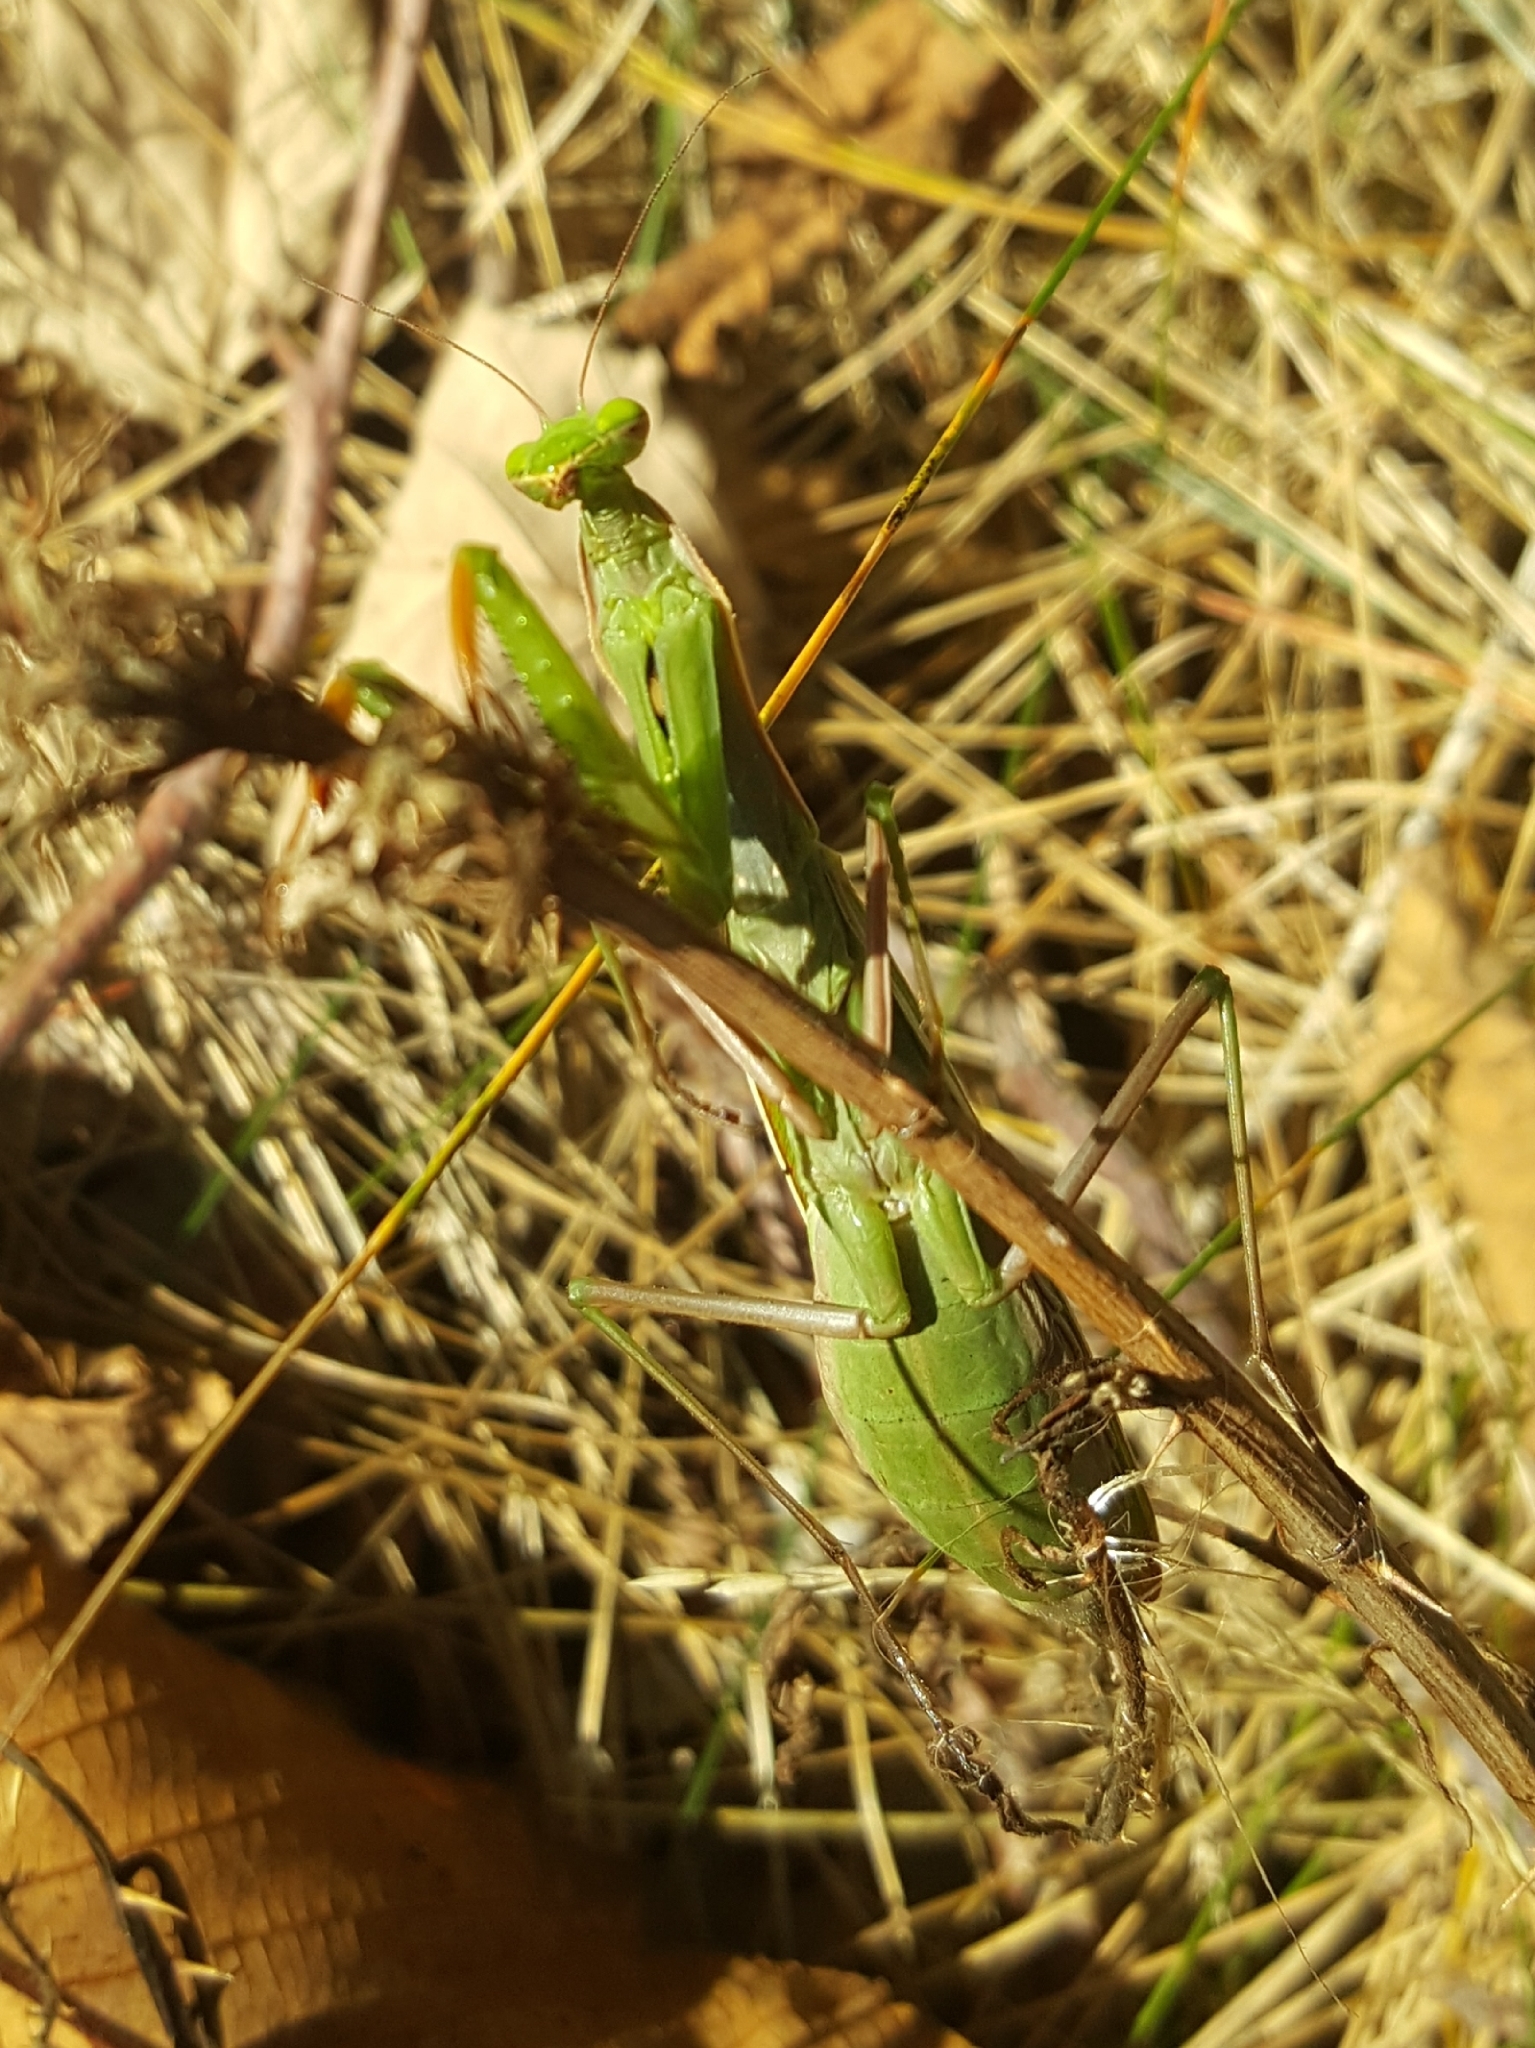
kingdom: Animalia
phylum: Arthropoda
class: Insecta
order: Mantodea
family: Mantidae
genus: Mantis
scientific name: Mantis religiosa
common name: Praying mantis
